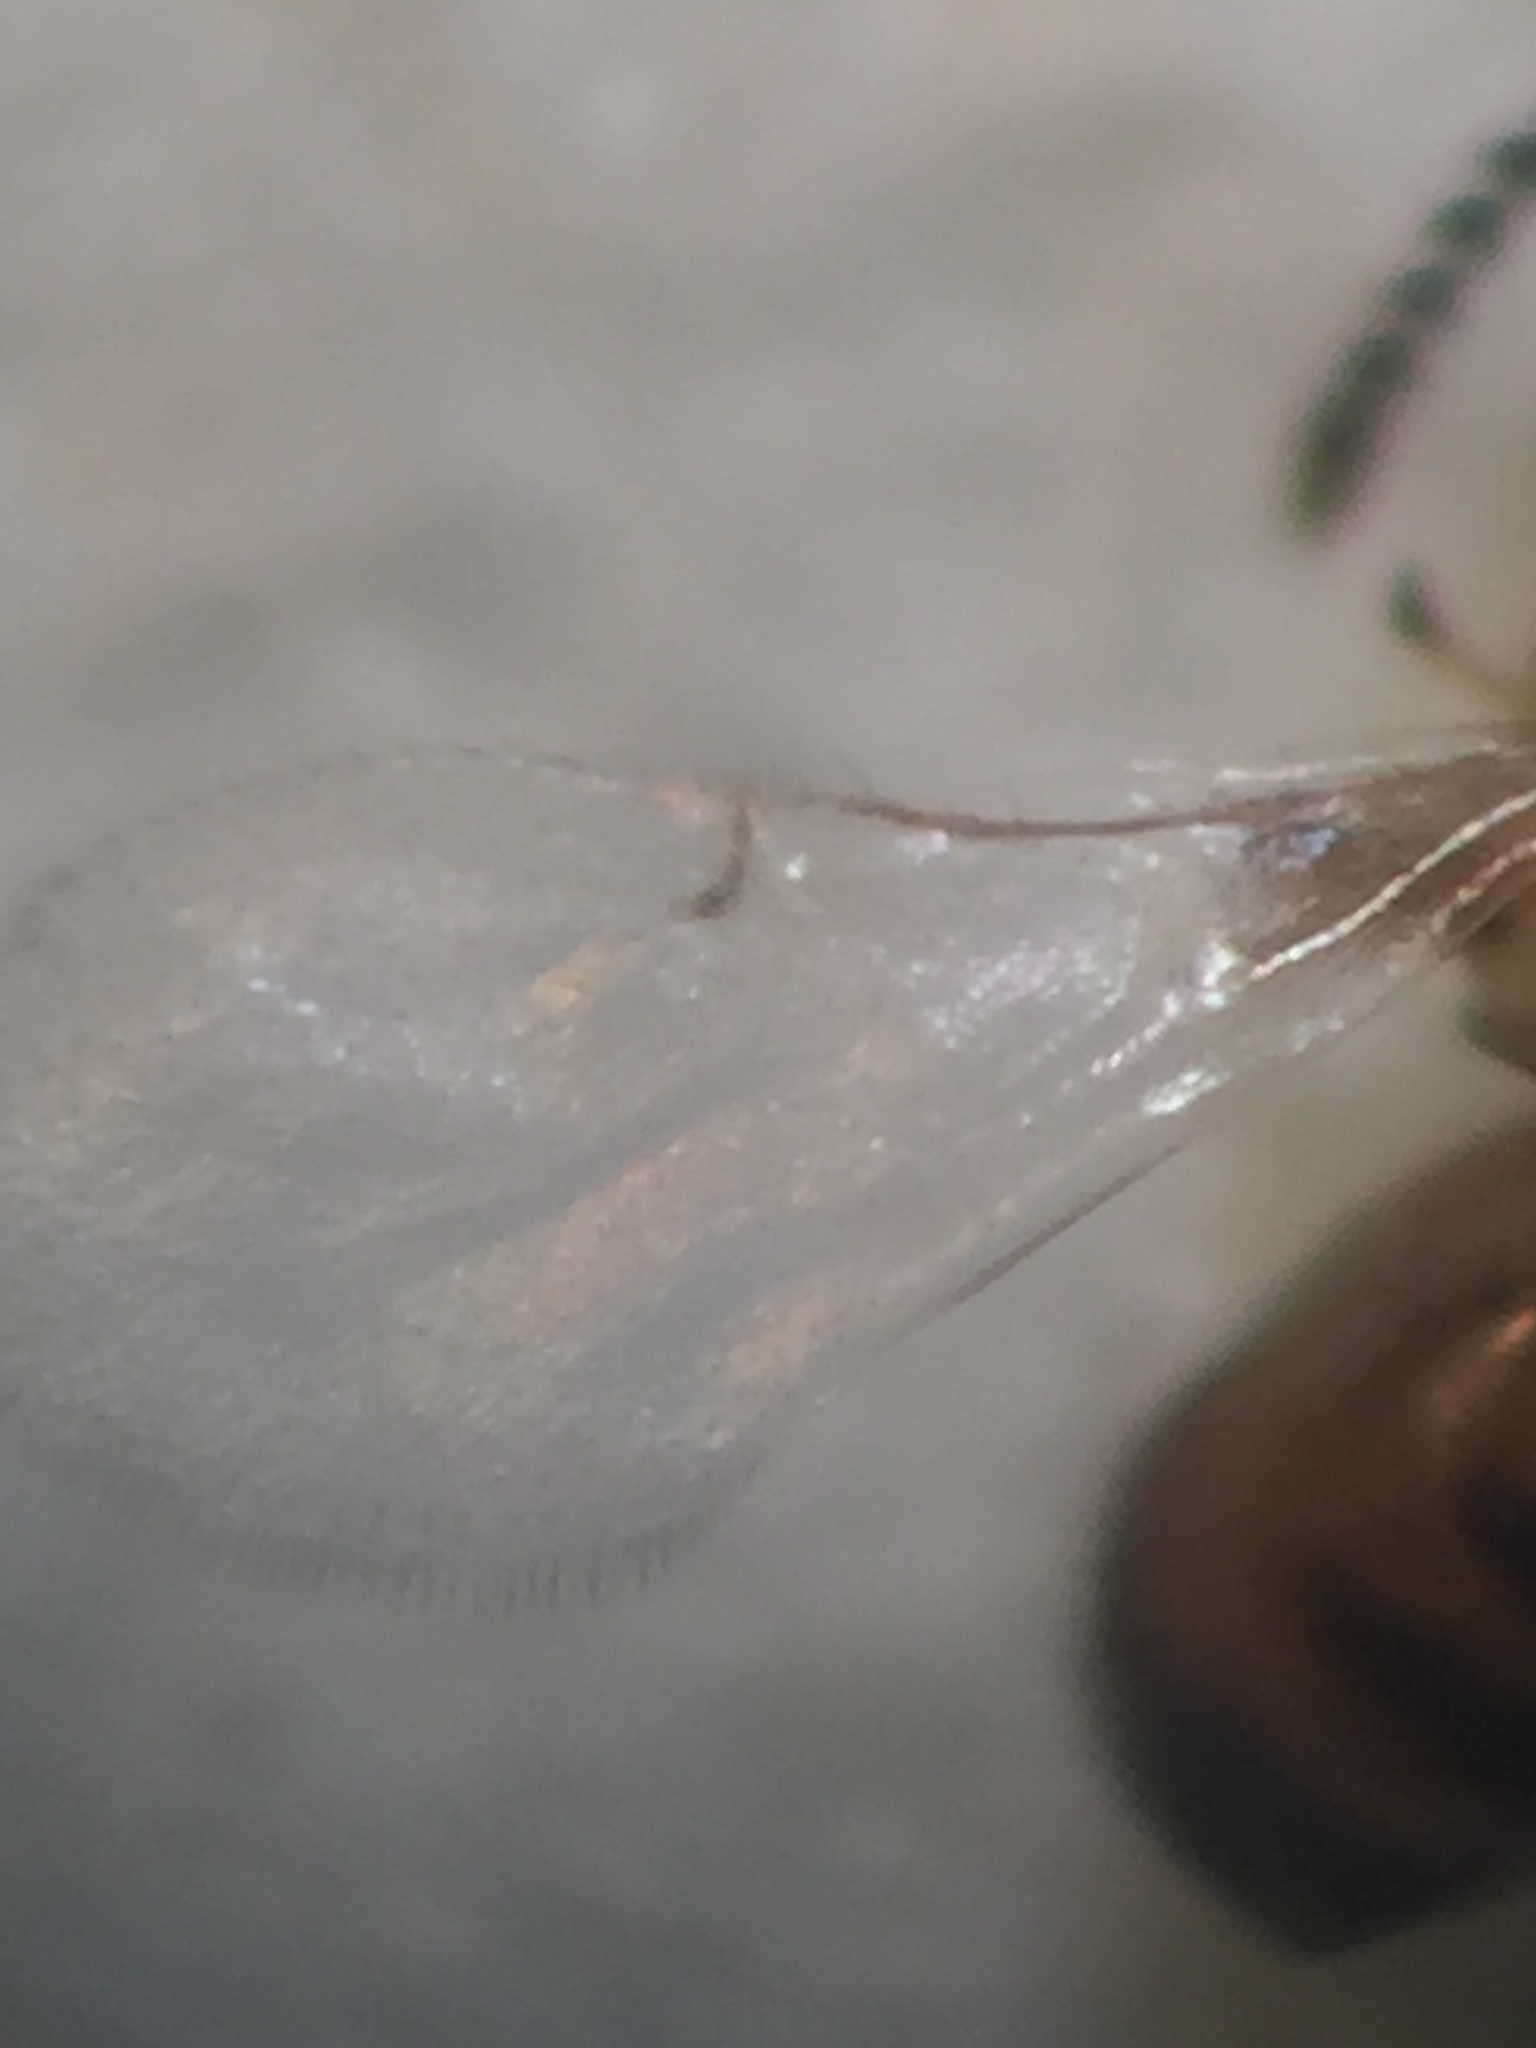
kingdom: Animalia
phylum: Arthropoda
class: Insecta
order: Hymenoptera
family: Agaonidae
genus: Odontofroggatia
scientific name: Odontofroggatia galili
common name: Fig wasp
